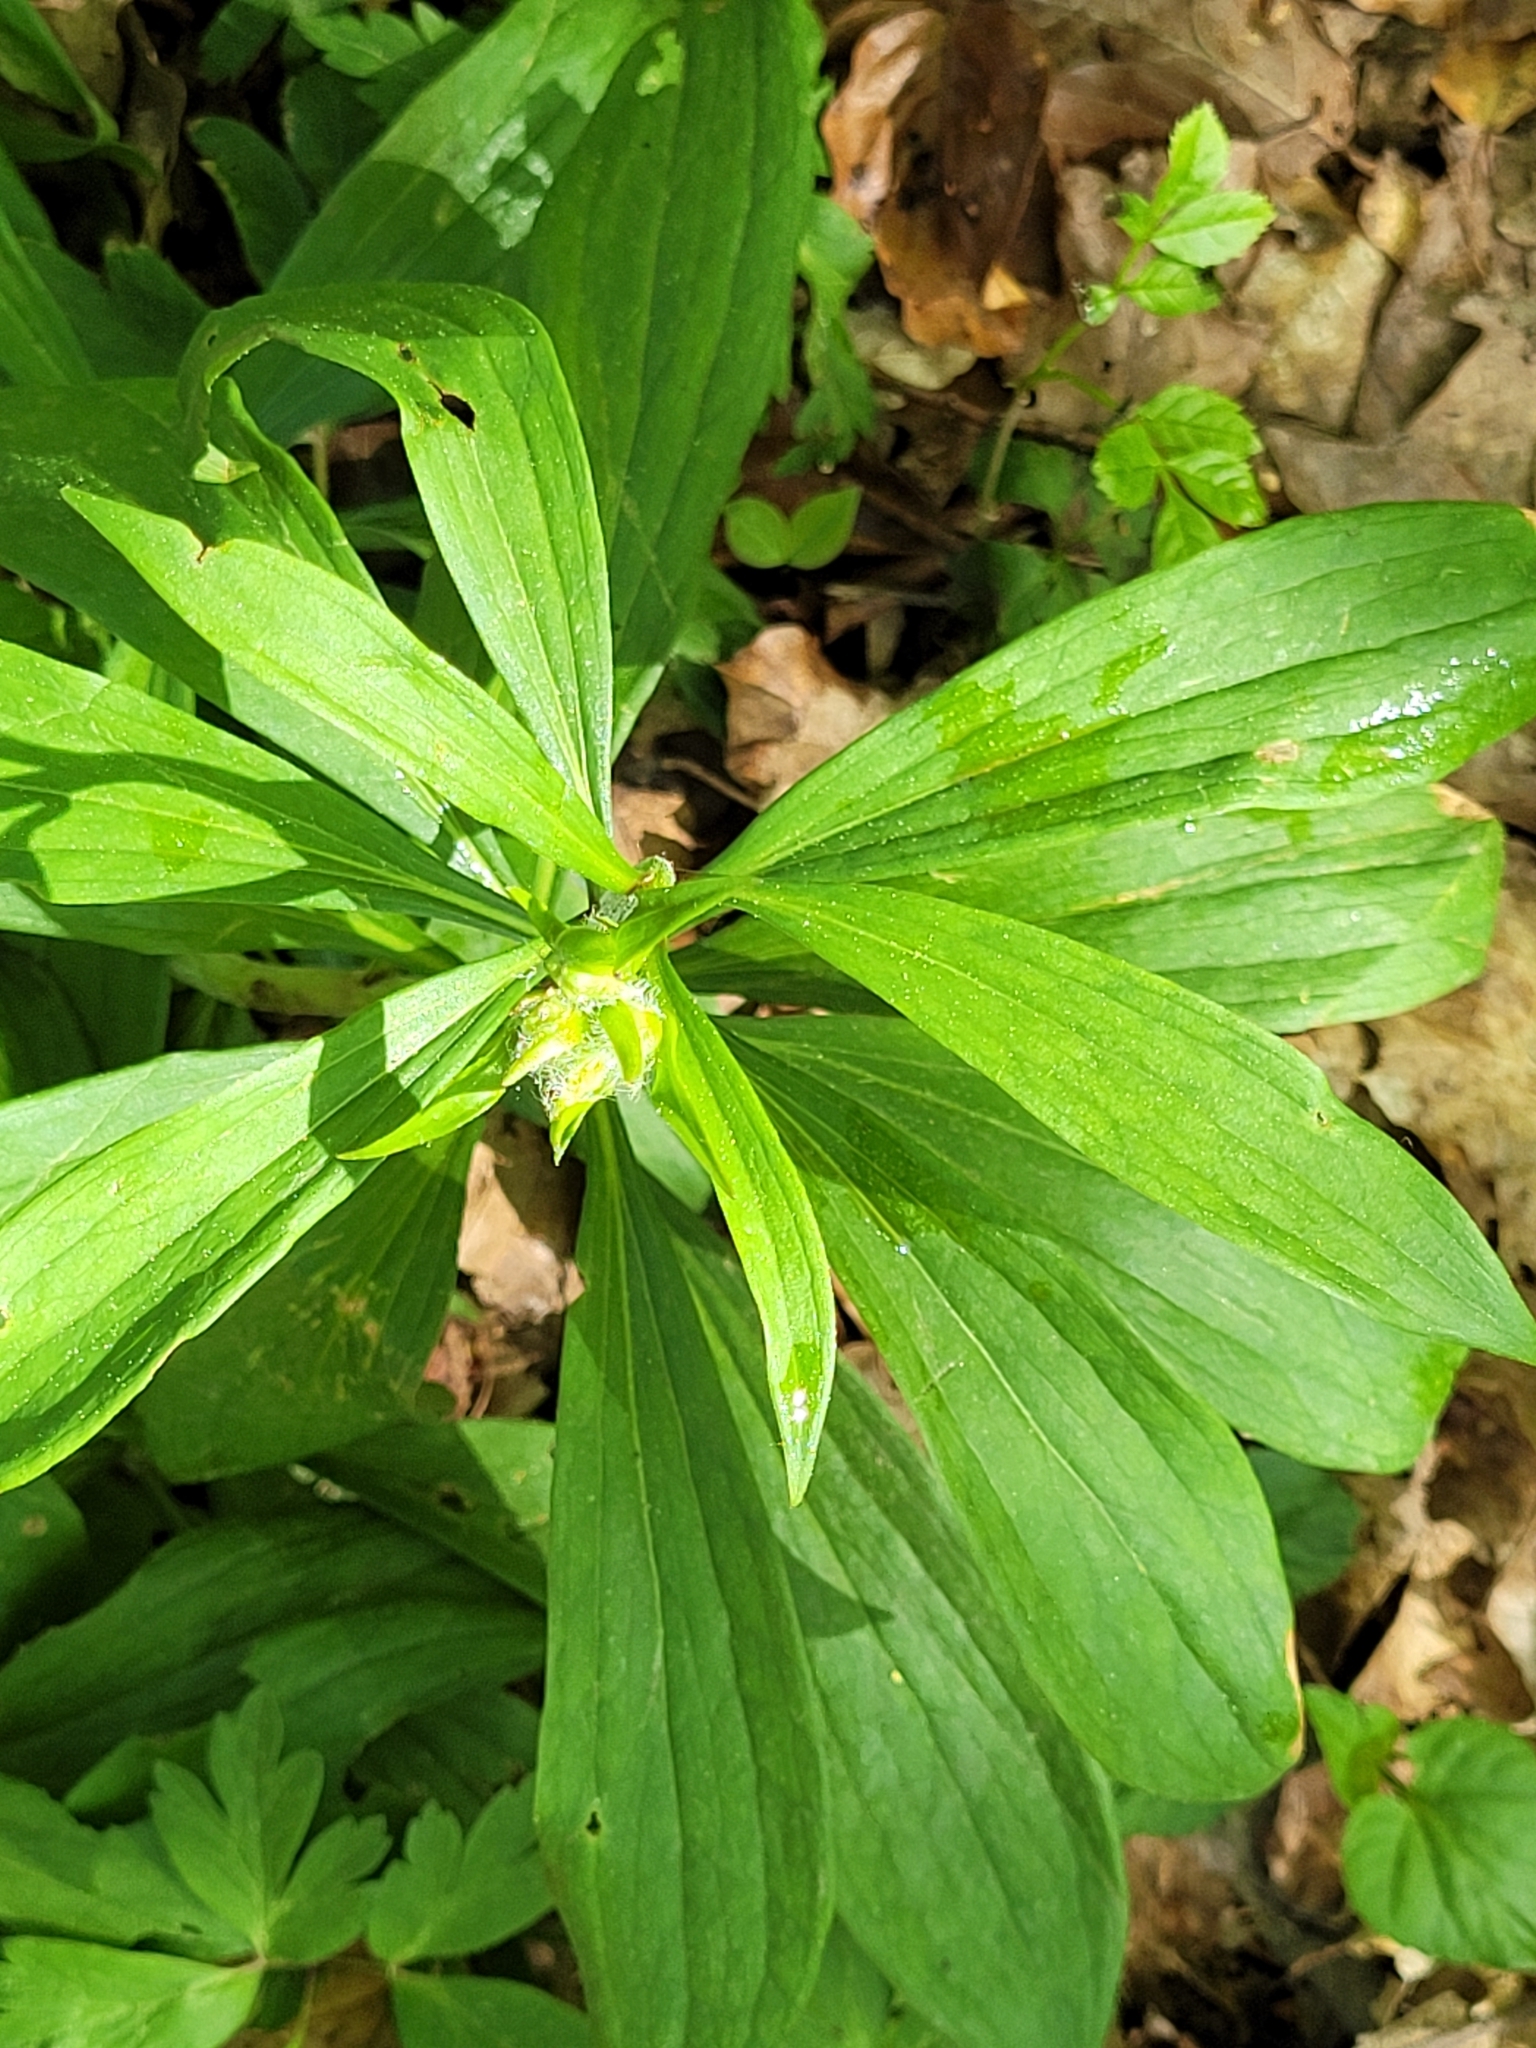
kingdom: Plantae
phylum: Tracheophyta
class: Liliopsida
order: Liliales
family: Liliaceae
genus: Lilium
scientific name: Lilium martagon
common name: Martagon lily
